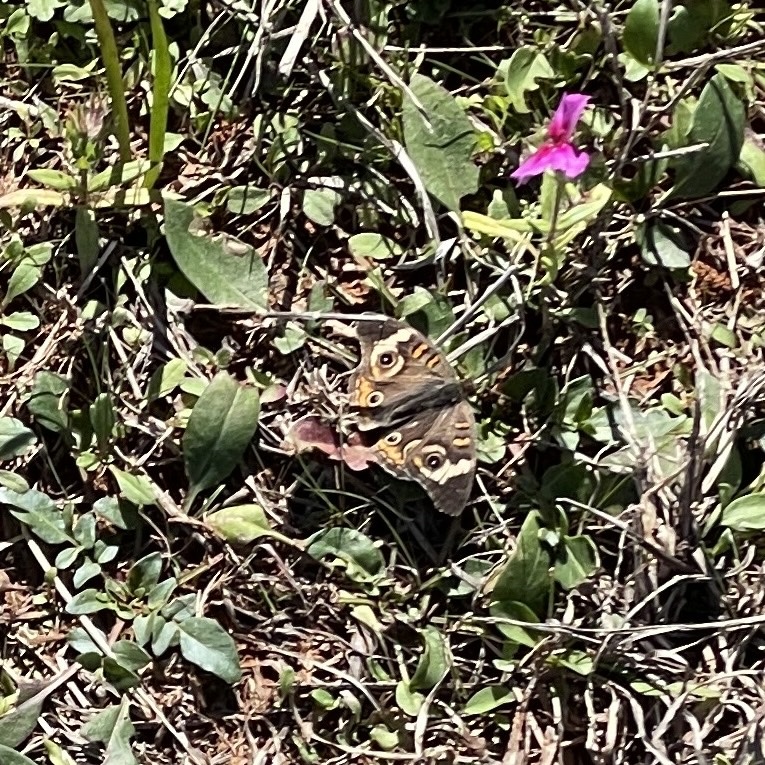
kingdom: Animalia
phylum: Arthropoda
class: Insecta
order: Lepidoptera
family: Nymphalidae
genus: Junonia
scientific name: Junonia coenia
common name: Common buckeye
